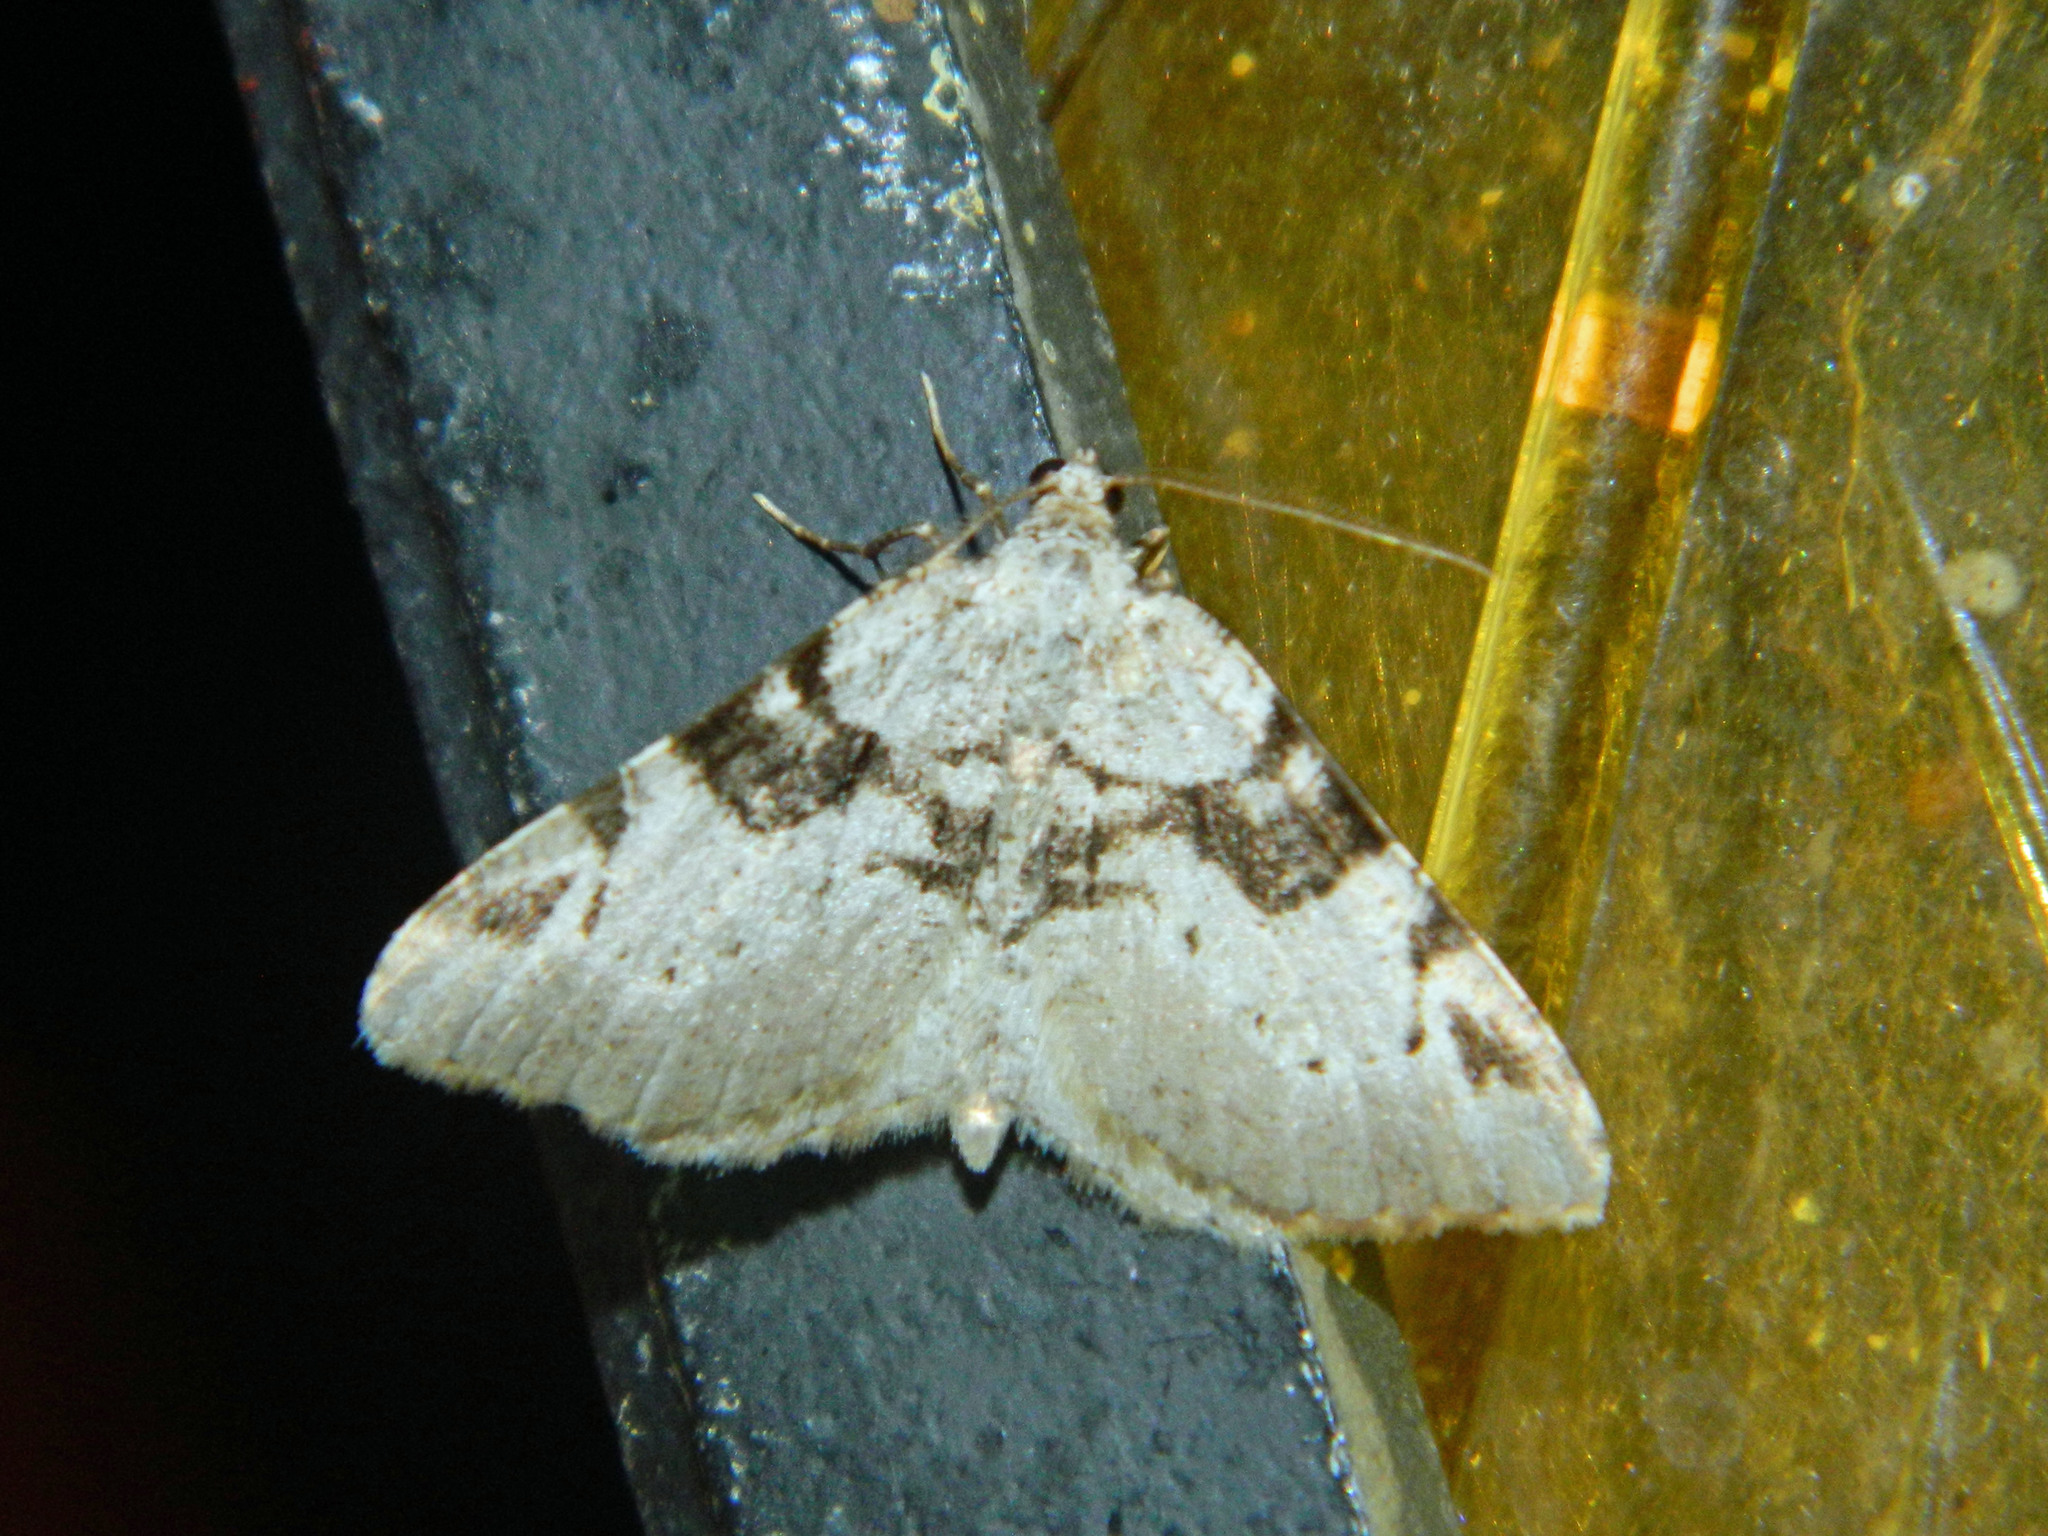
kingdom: Animalia
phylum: Arthropoda
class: Insecta
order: Lepidoptera
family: Geometridae
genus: Macaria
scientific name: Macaria bitactata
